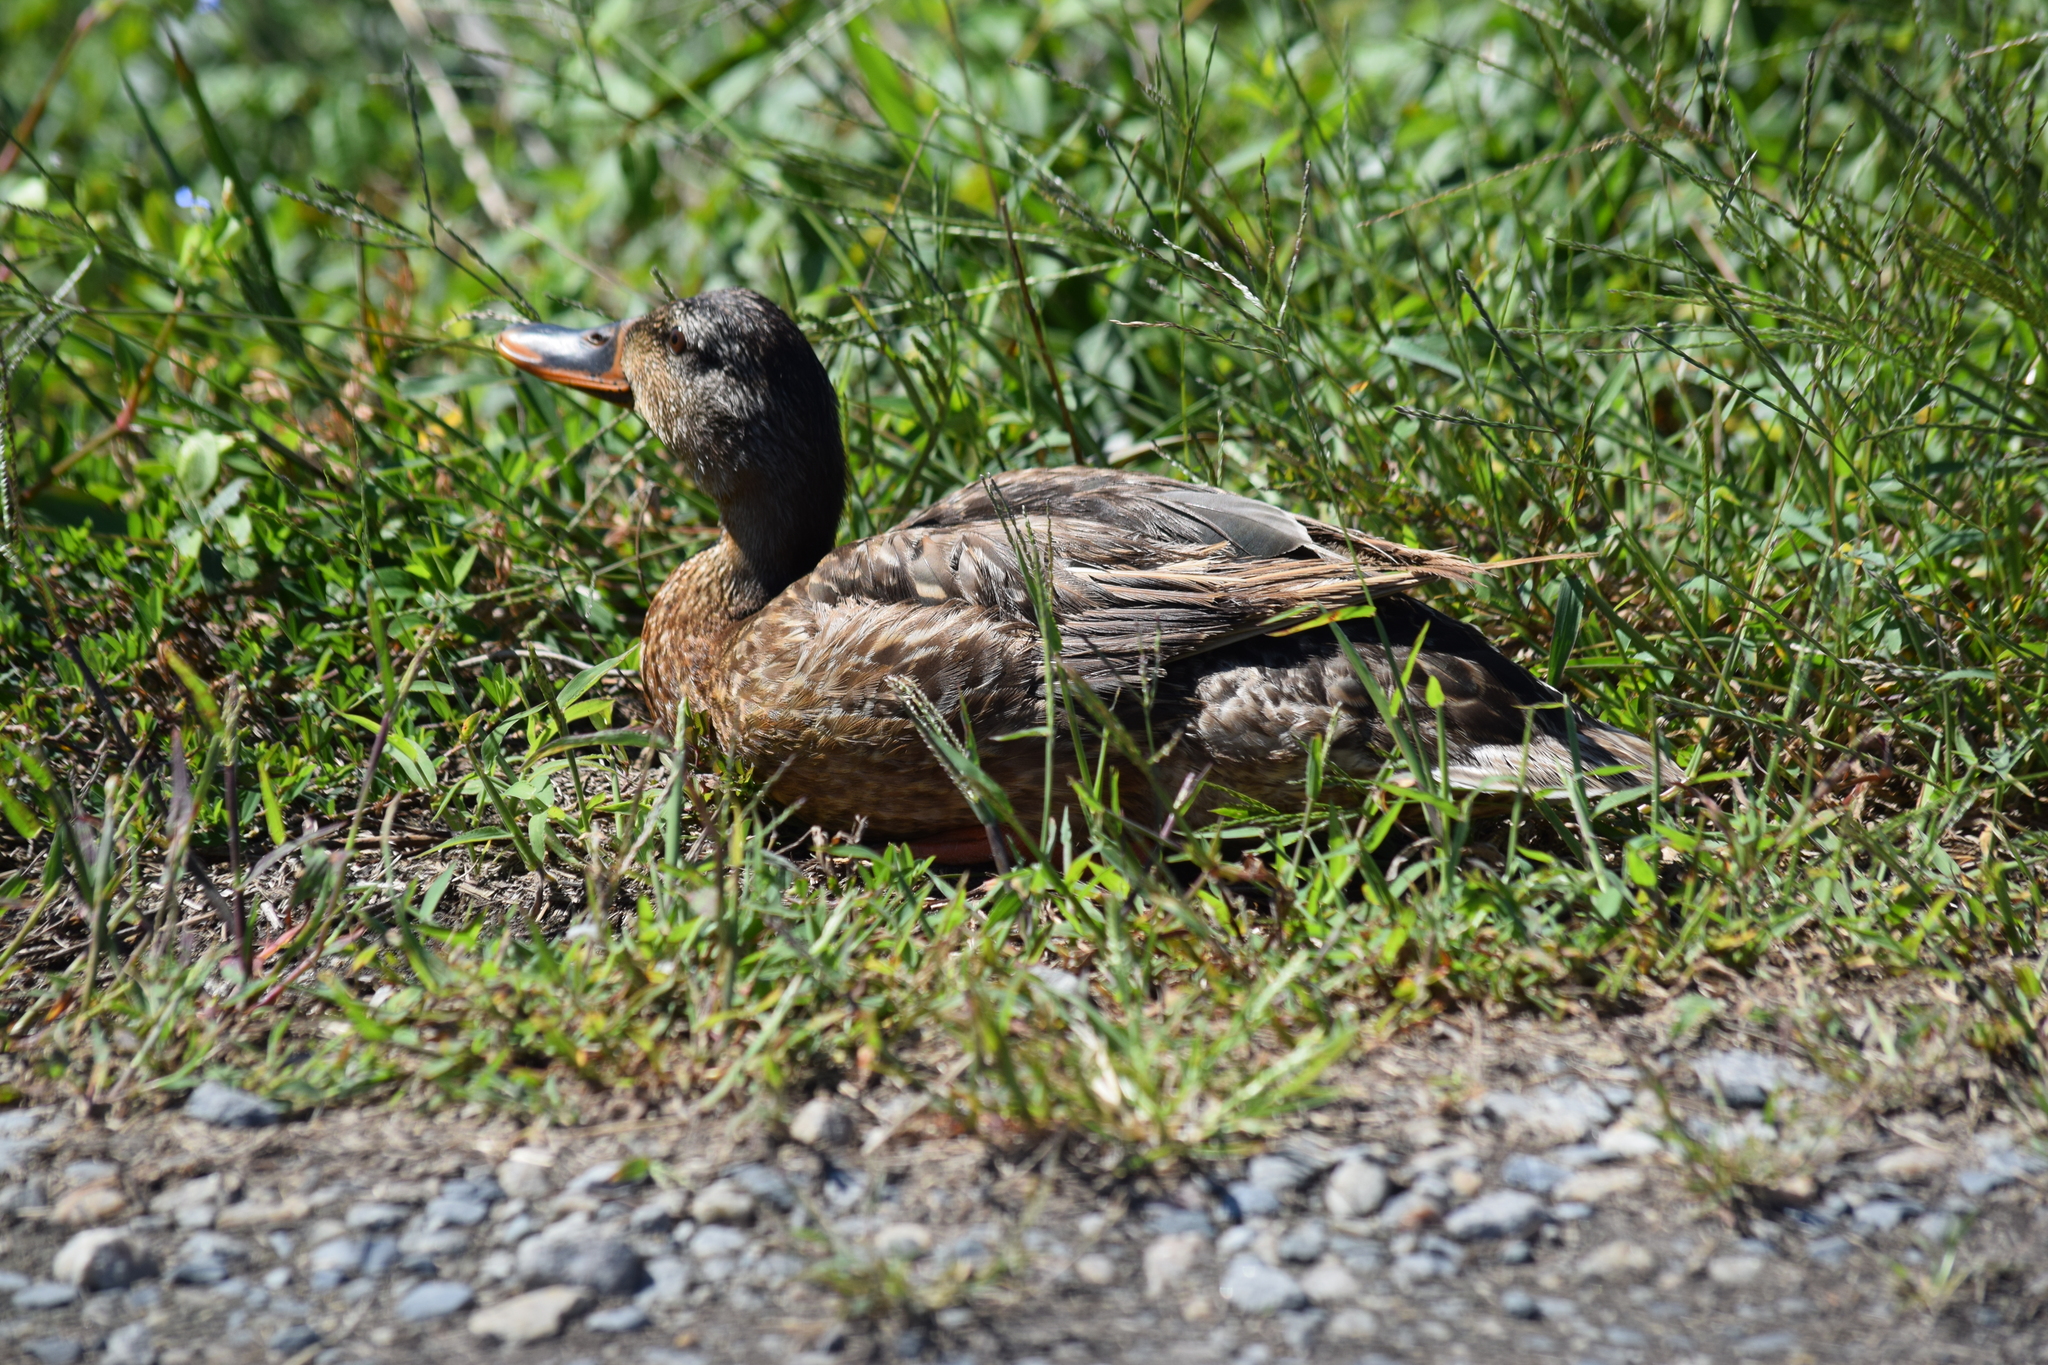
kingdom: Animalia
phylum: Chordata
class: Aves
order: Anseriformes
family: Anatidae
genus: Anas
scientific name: Anas platyrhynchos
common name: Mallard
